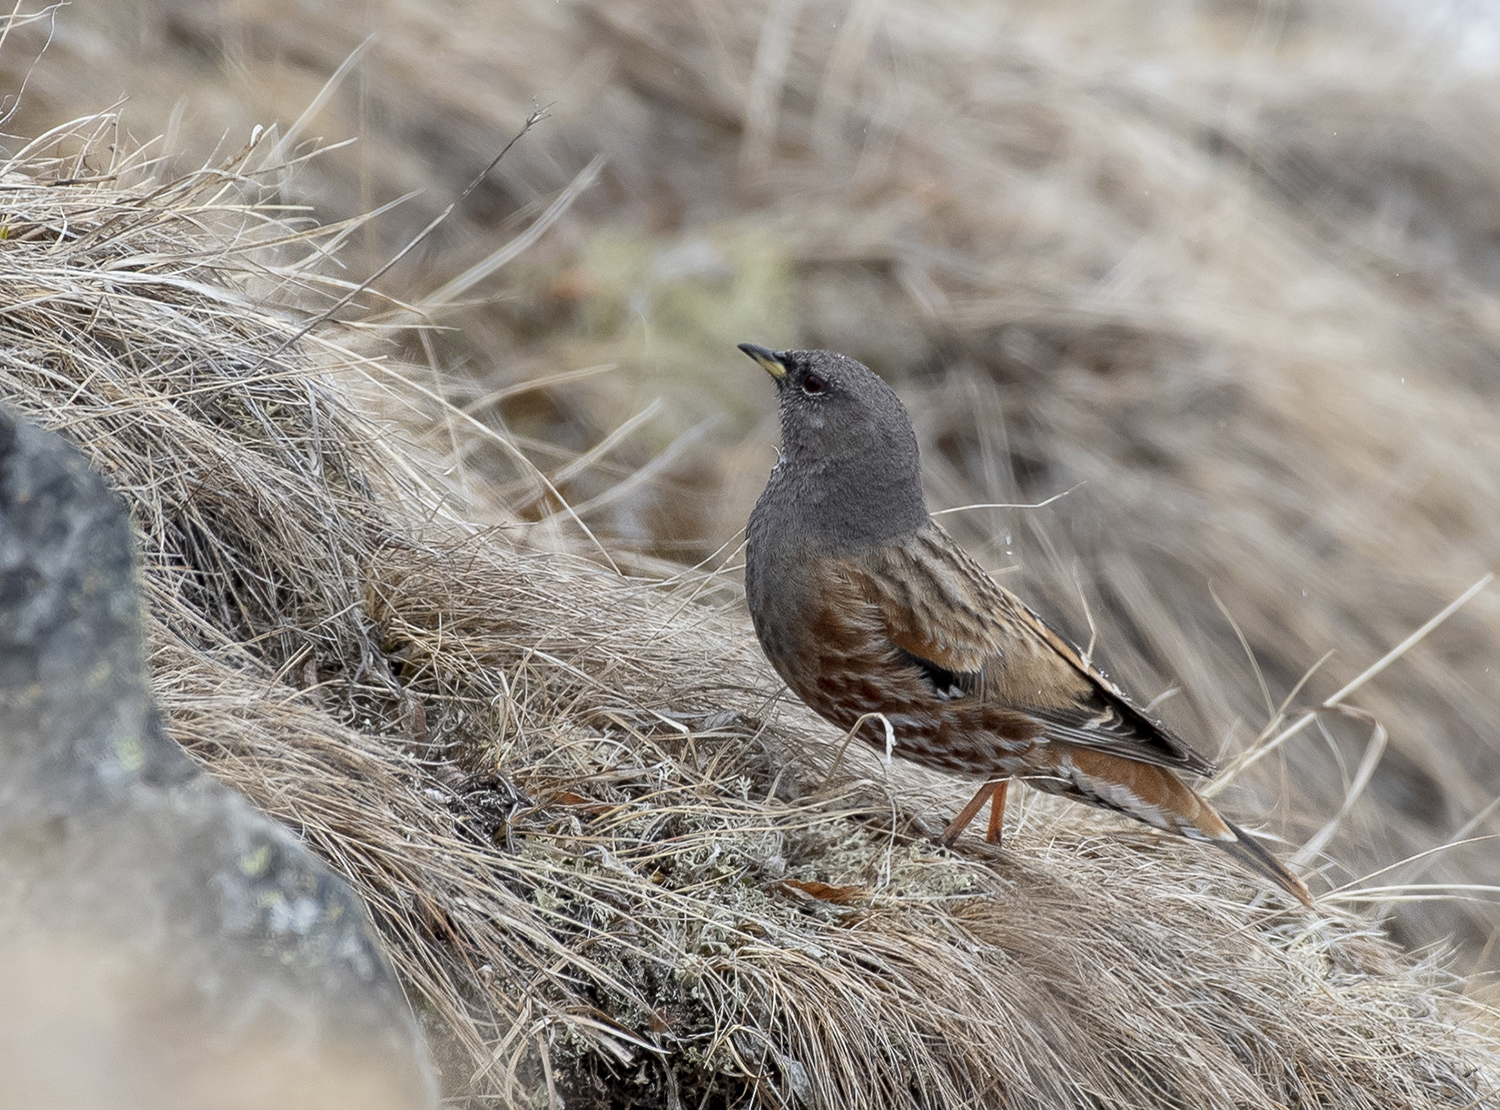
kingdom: Animalia
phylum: Chordata
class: Aves
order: Passeriformes
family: Prunellidae
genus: Prunella
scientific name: Prunella collaris
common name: Alpine accentor
